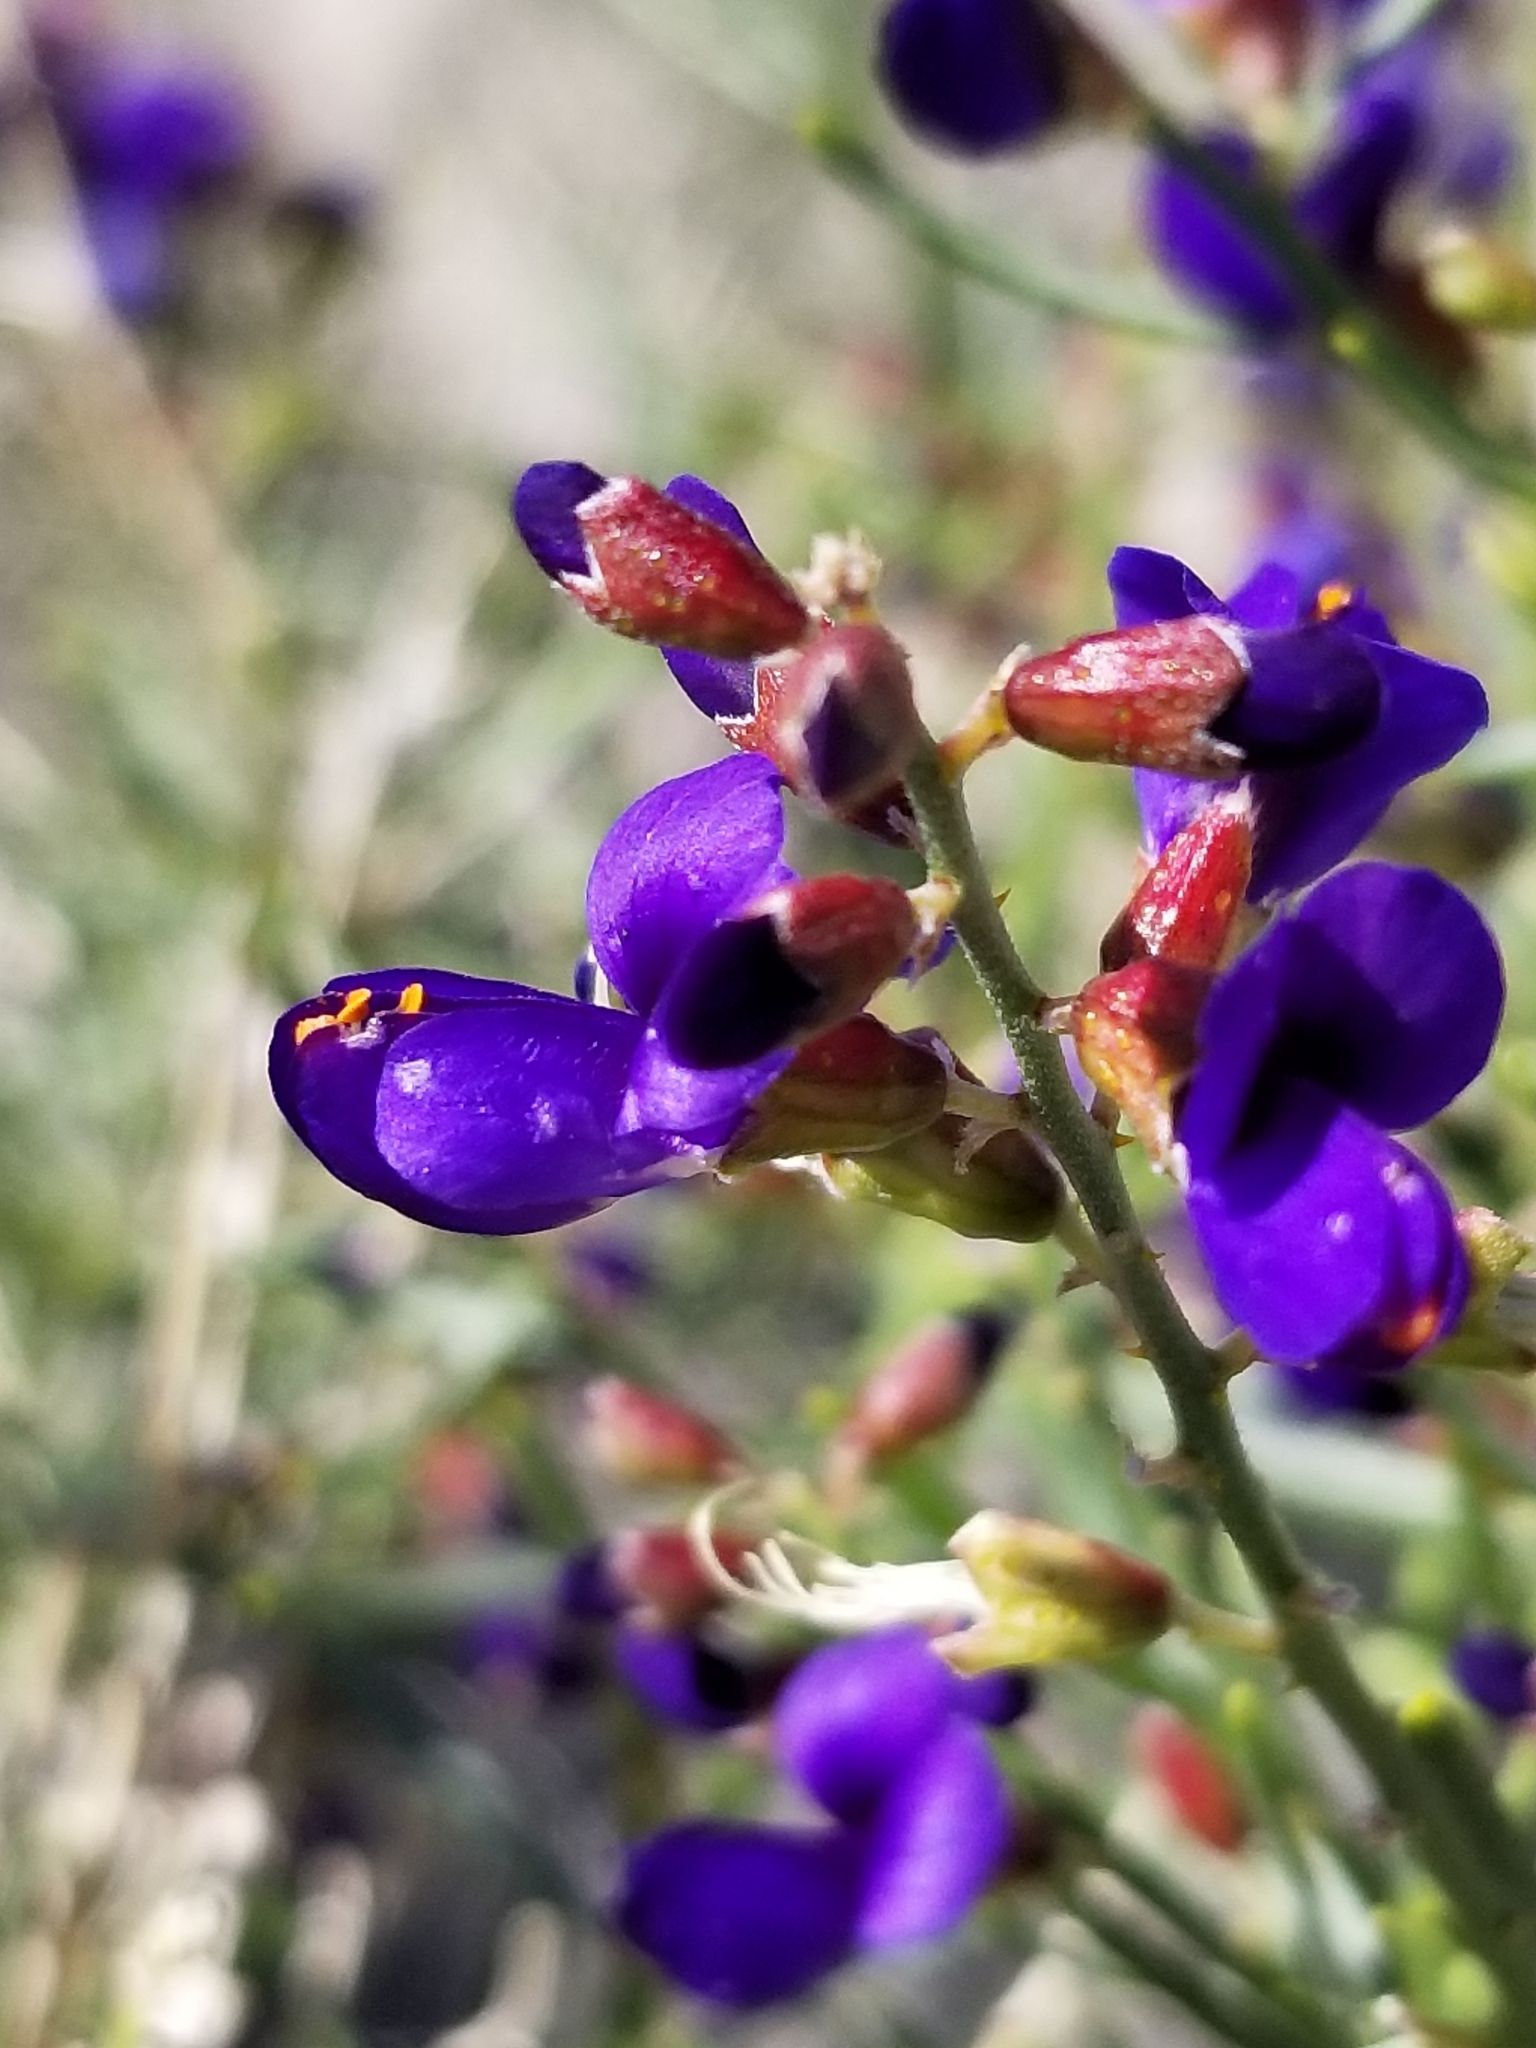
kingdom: Plantae
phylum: Tracheophyta
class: Magnoliopsida
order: Fabales
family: Fabaceae
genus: Psorothamnus
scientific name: Psorothamnus schottii
